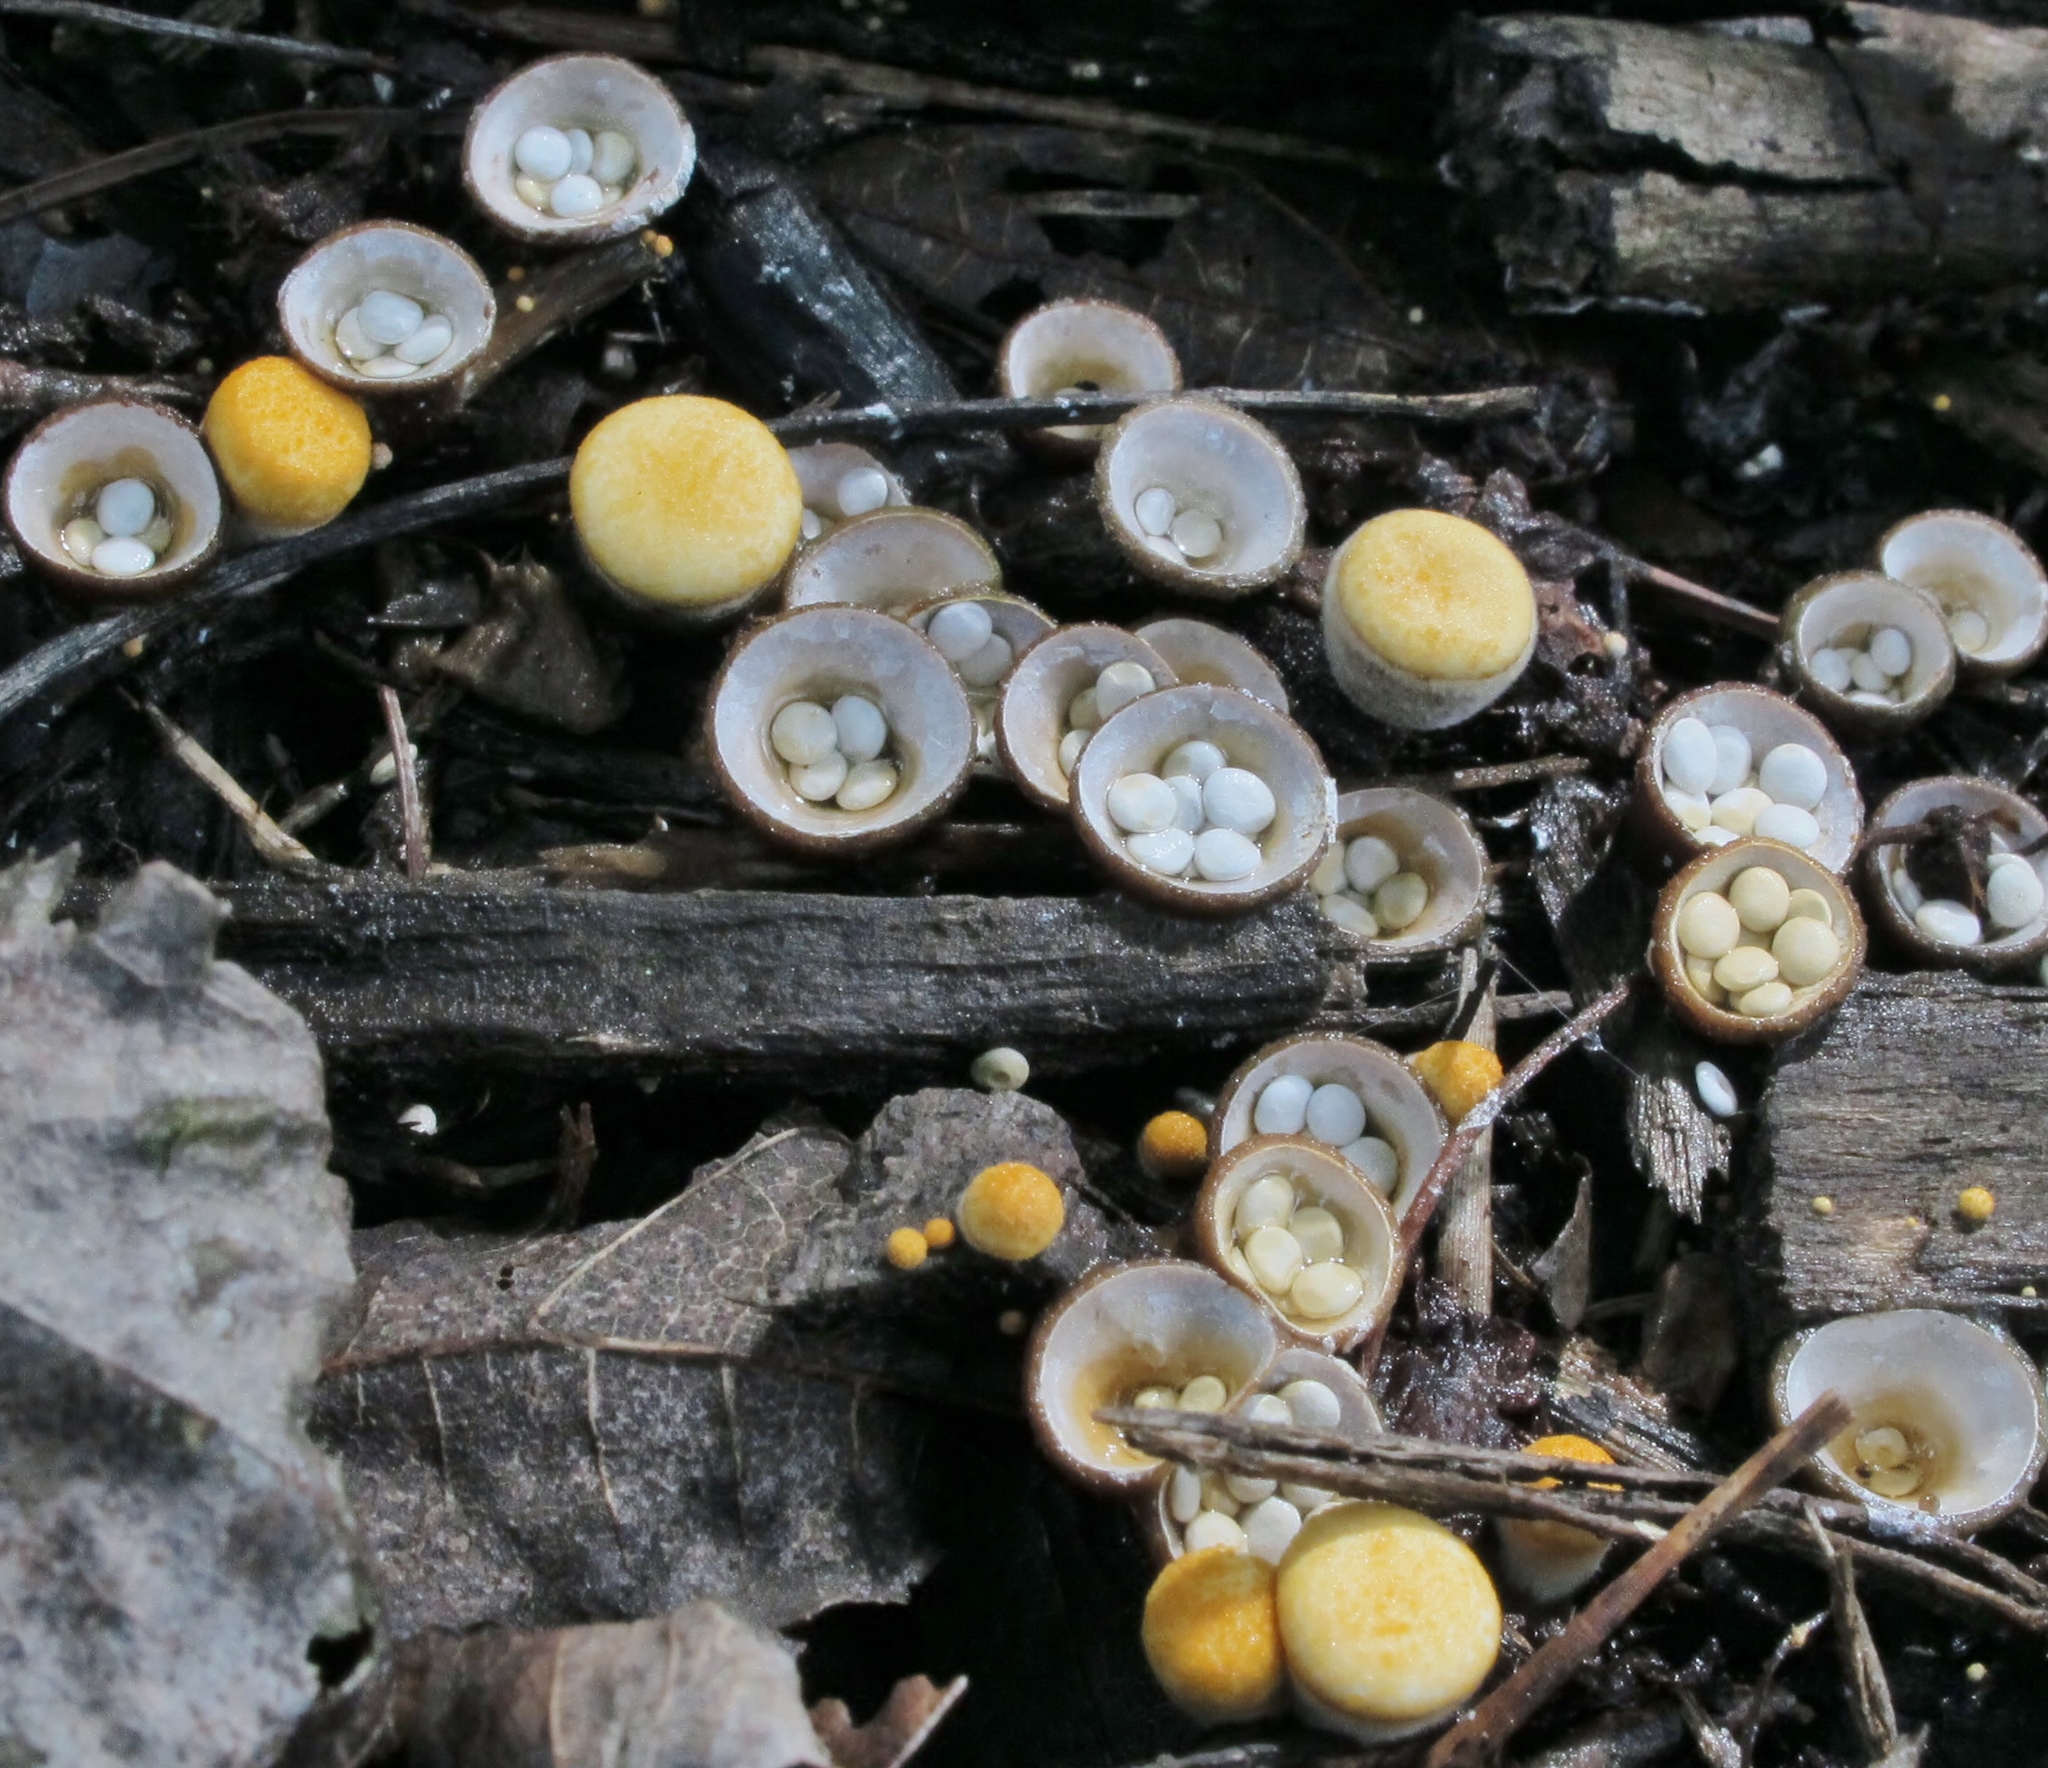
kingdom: Fungi
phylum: Basidiomycota
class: Agaricomycetes
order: Agaricales
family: Nidulariaceae
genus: Crucibulum
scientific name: Crucibulum laeve
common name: Common bird's nest
